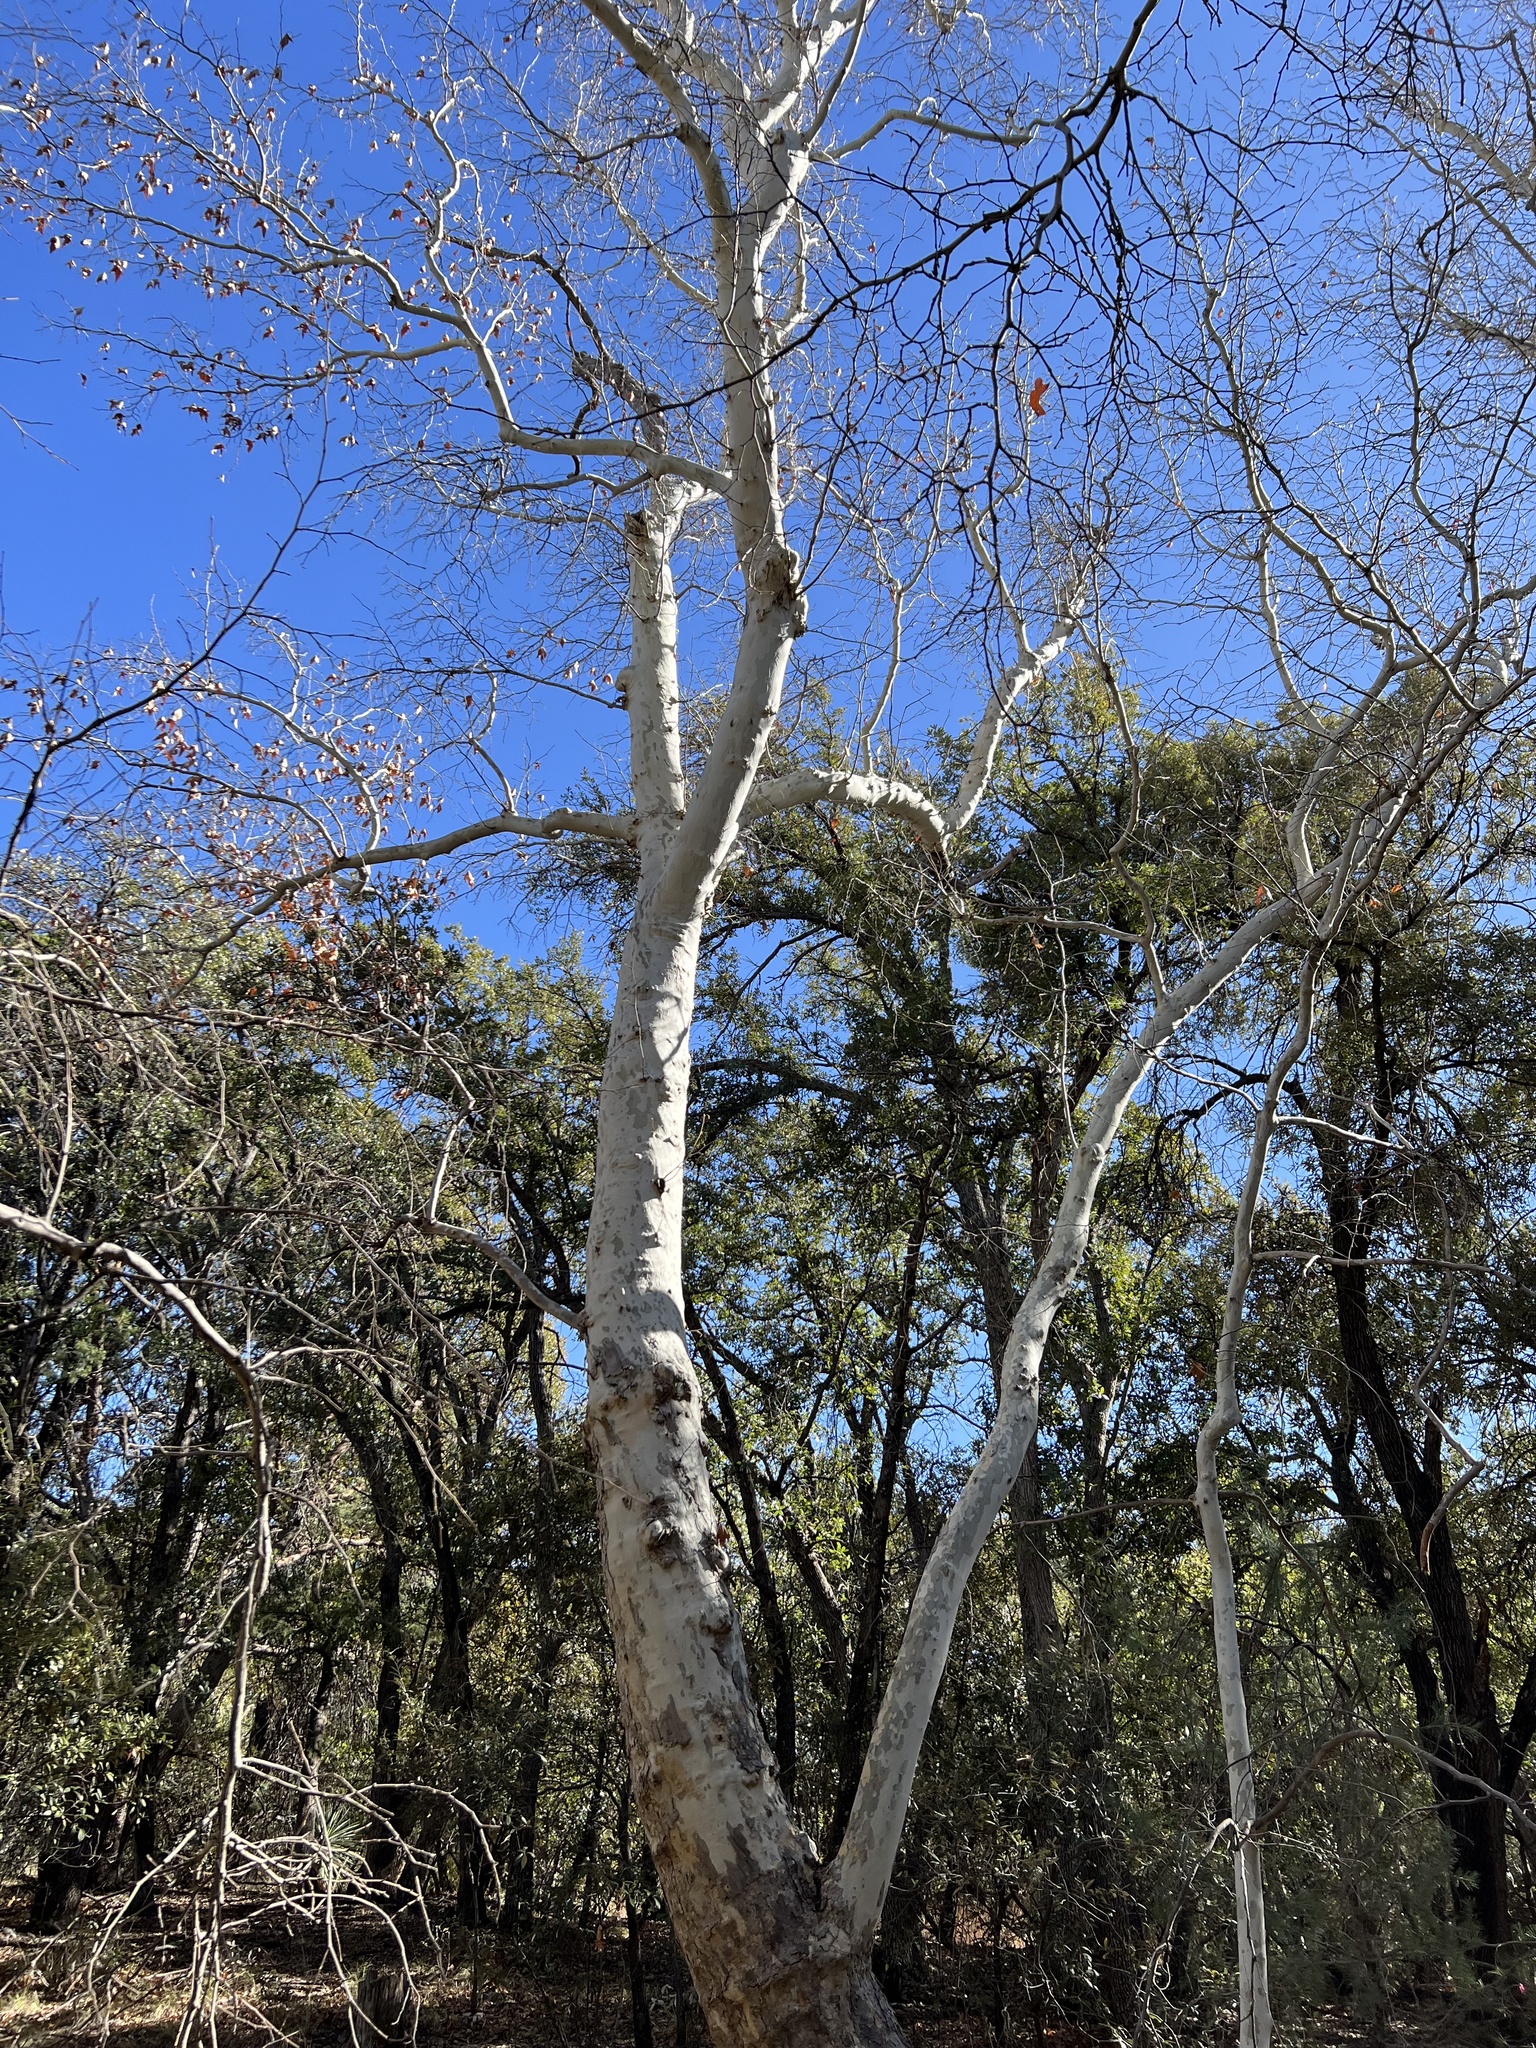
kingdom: Plantae
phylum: Tracheophyta
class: Magnoliopsida
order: Proteales
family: Platanaceae
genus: Platanus
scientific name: Platanus wrightii
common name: Arizona sycamore
